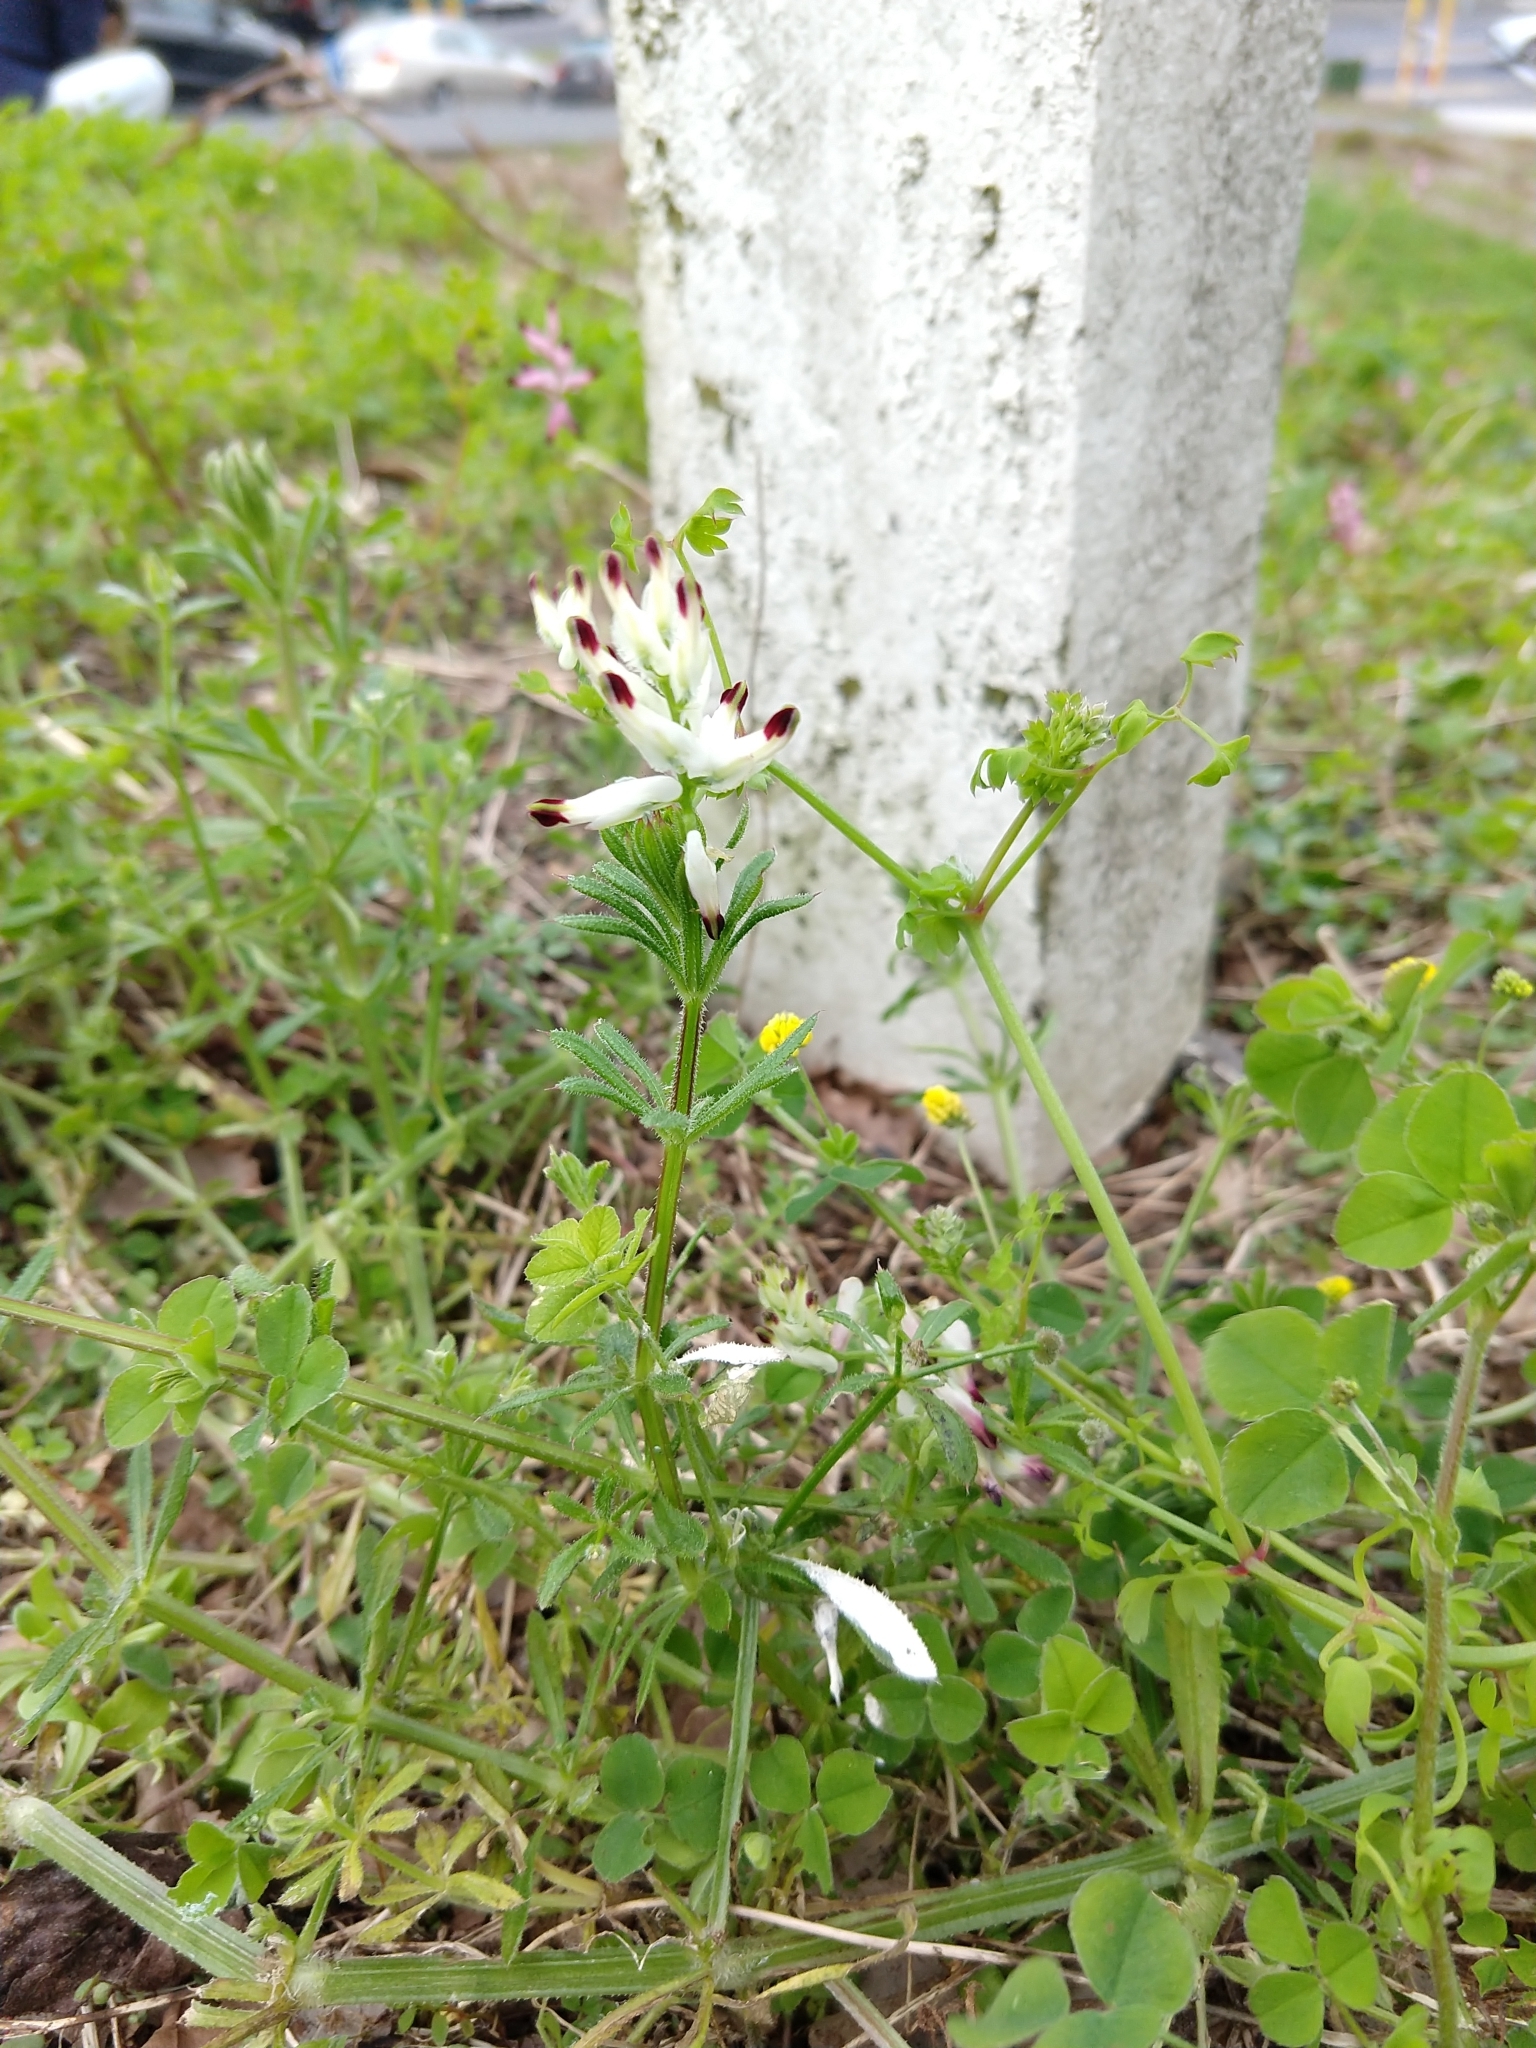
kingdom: Plantae
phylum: Tracheophyta
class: Magnoliopsida
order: Ranunculales
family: Papaveraceae
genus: Fumaria
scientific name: Fumaria capreolata
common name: White ramping-fumitory
